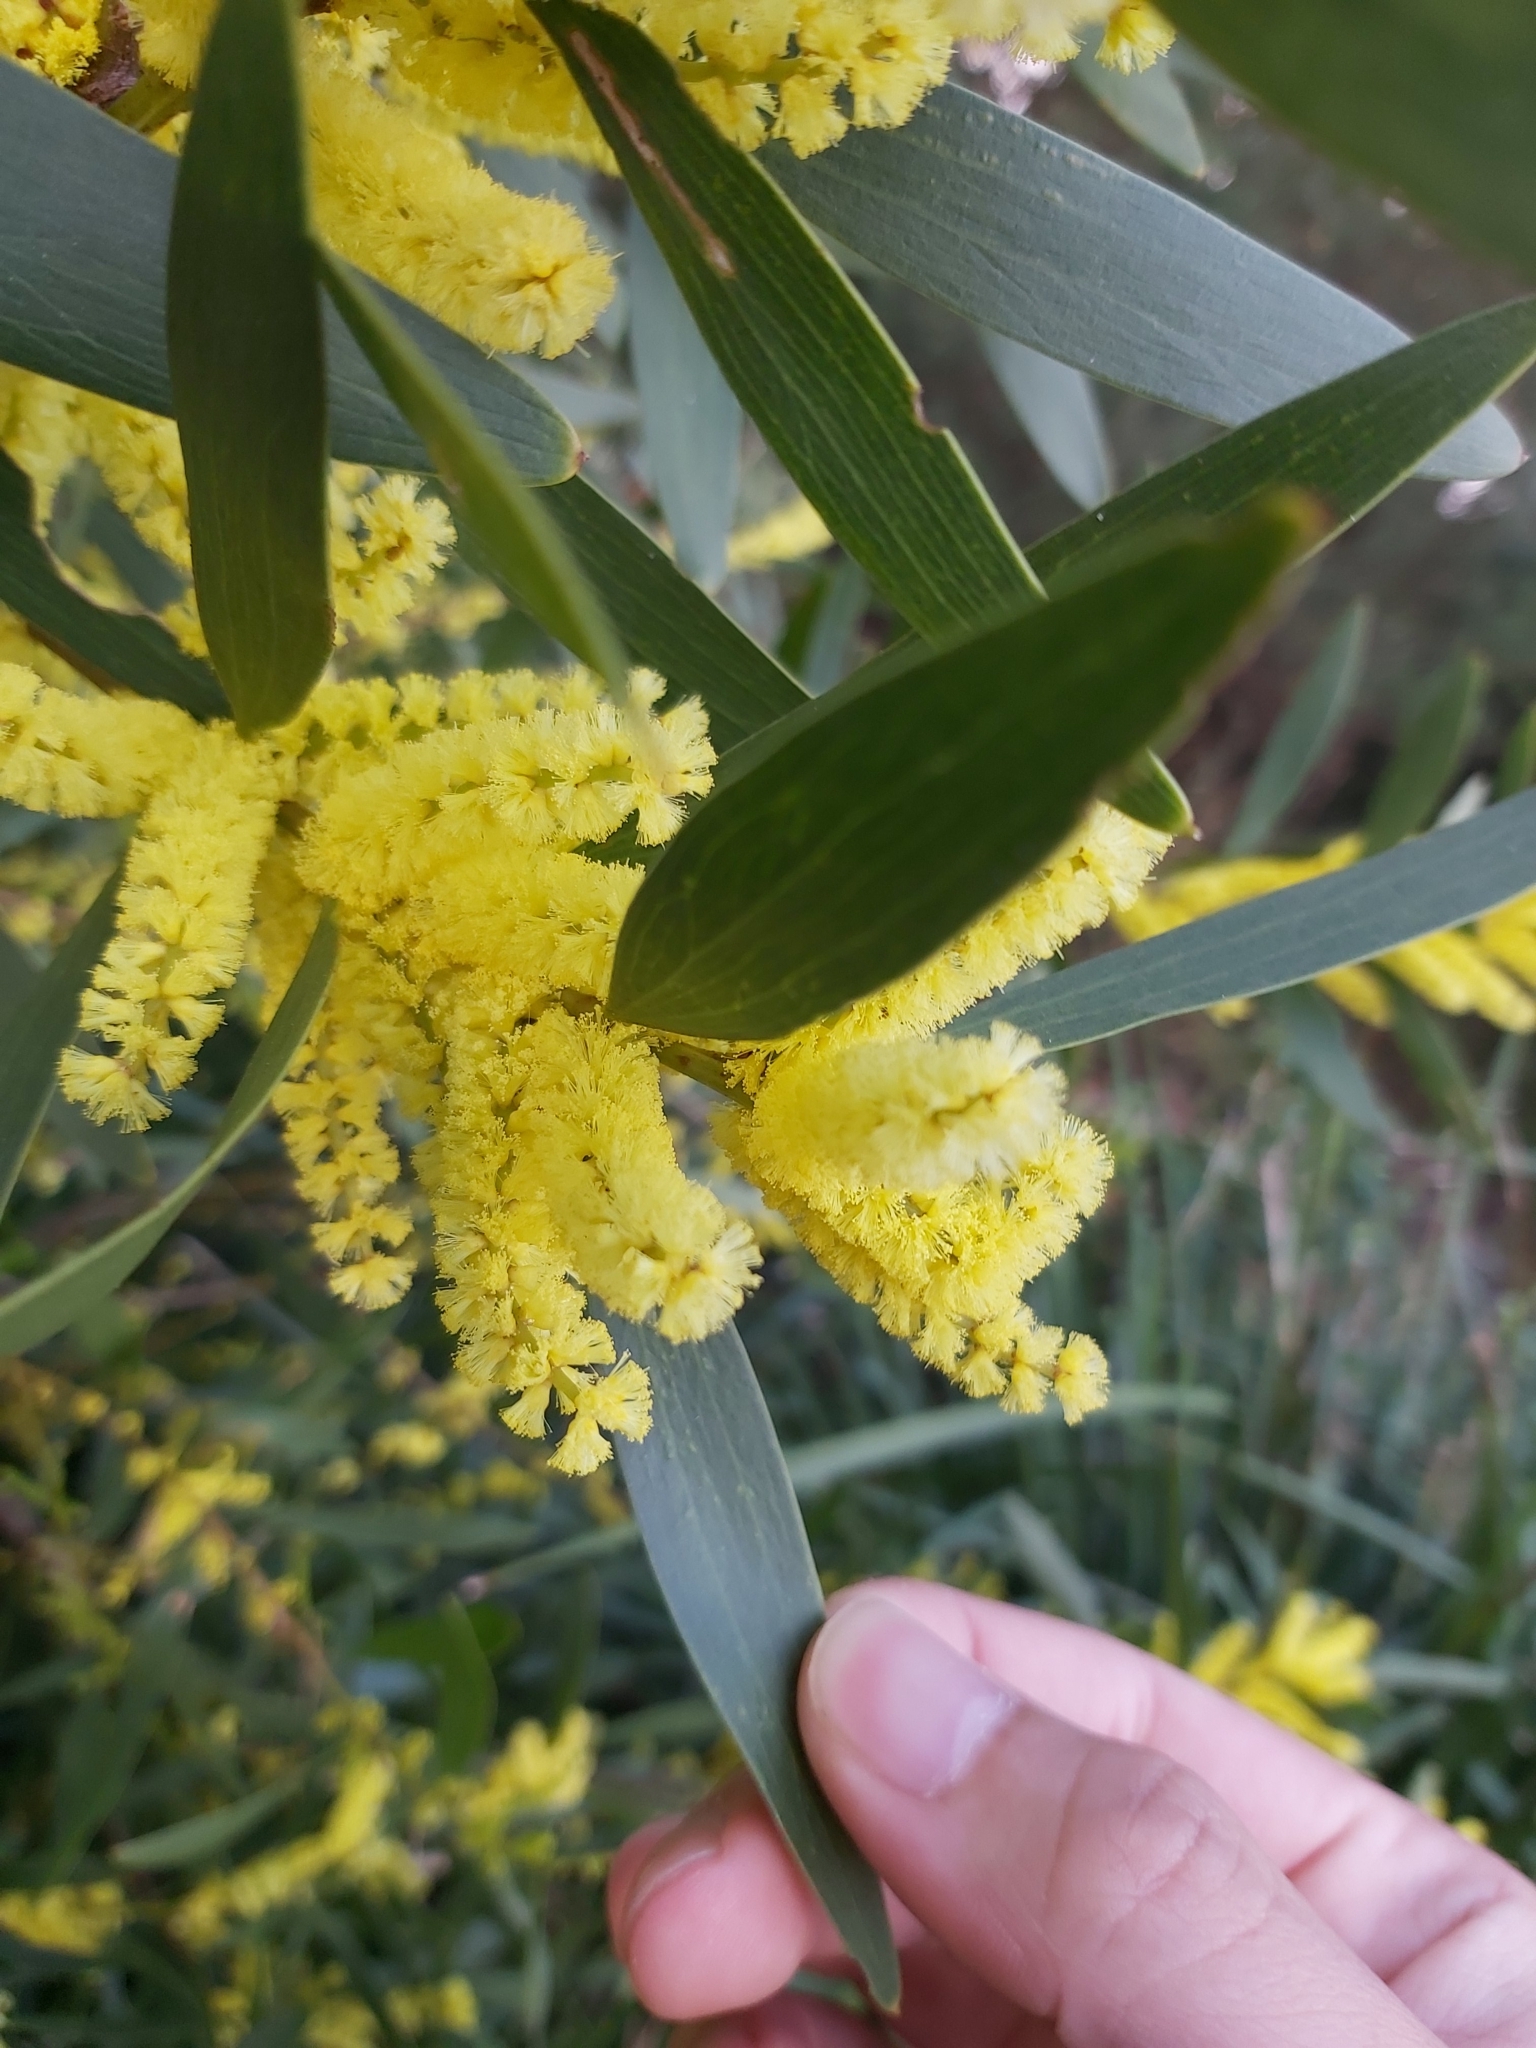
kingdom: Plantae
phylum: Tracheophyta
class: Magnoliopsida
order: Fabales
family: Fabaceae
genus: Acacia
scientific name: Acacia longifolia
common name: Sydney golden wattle
